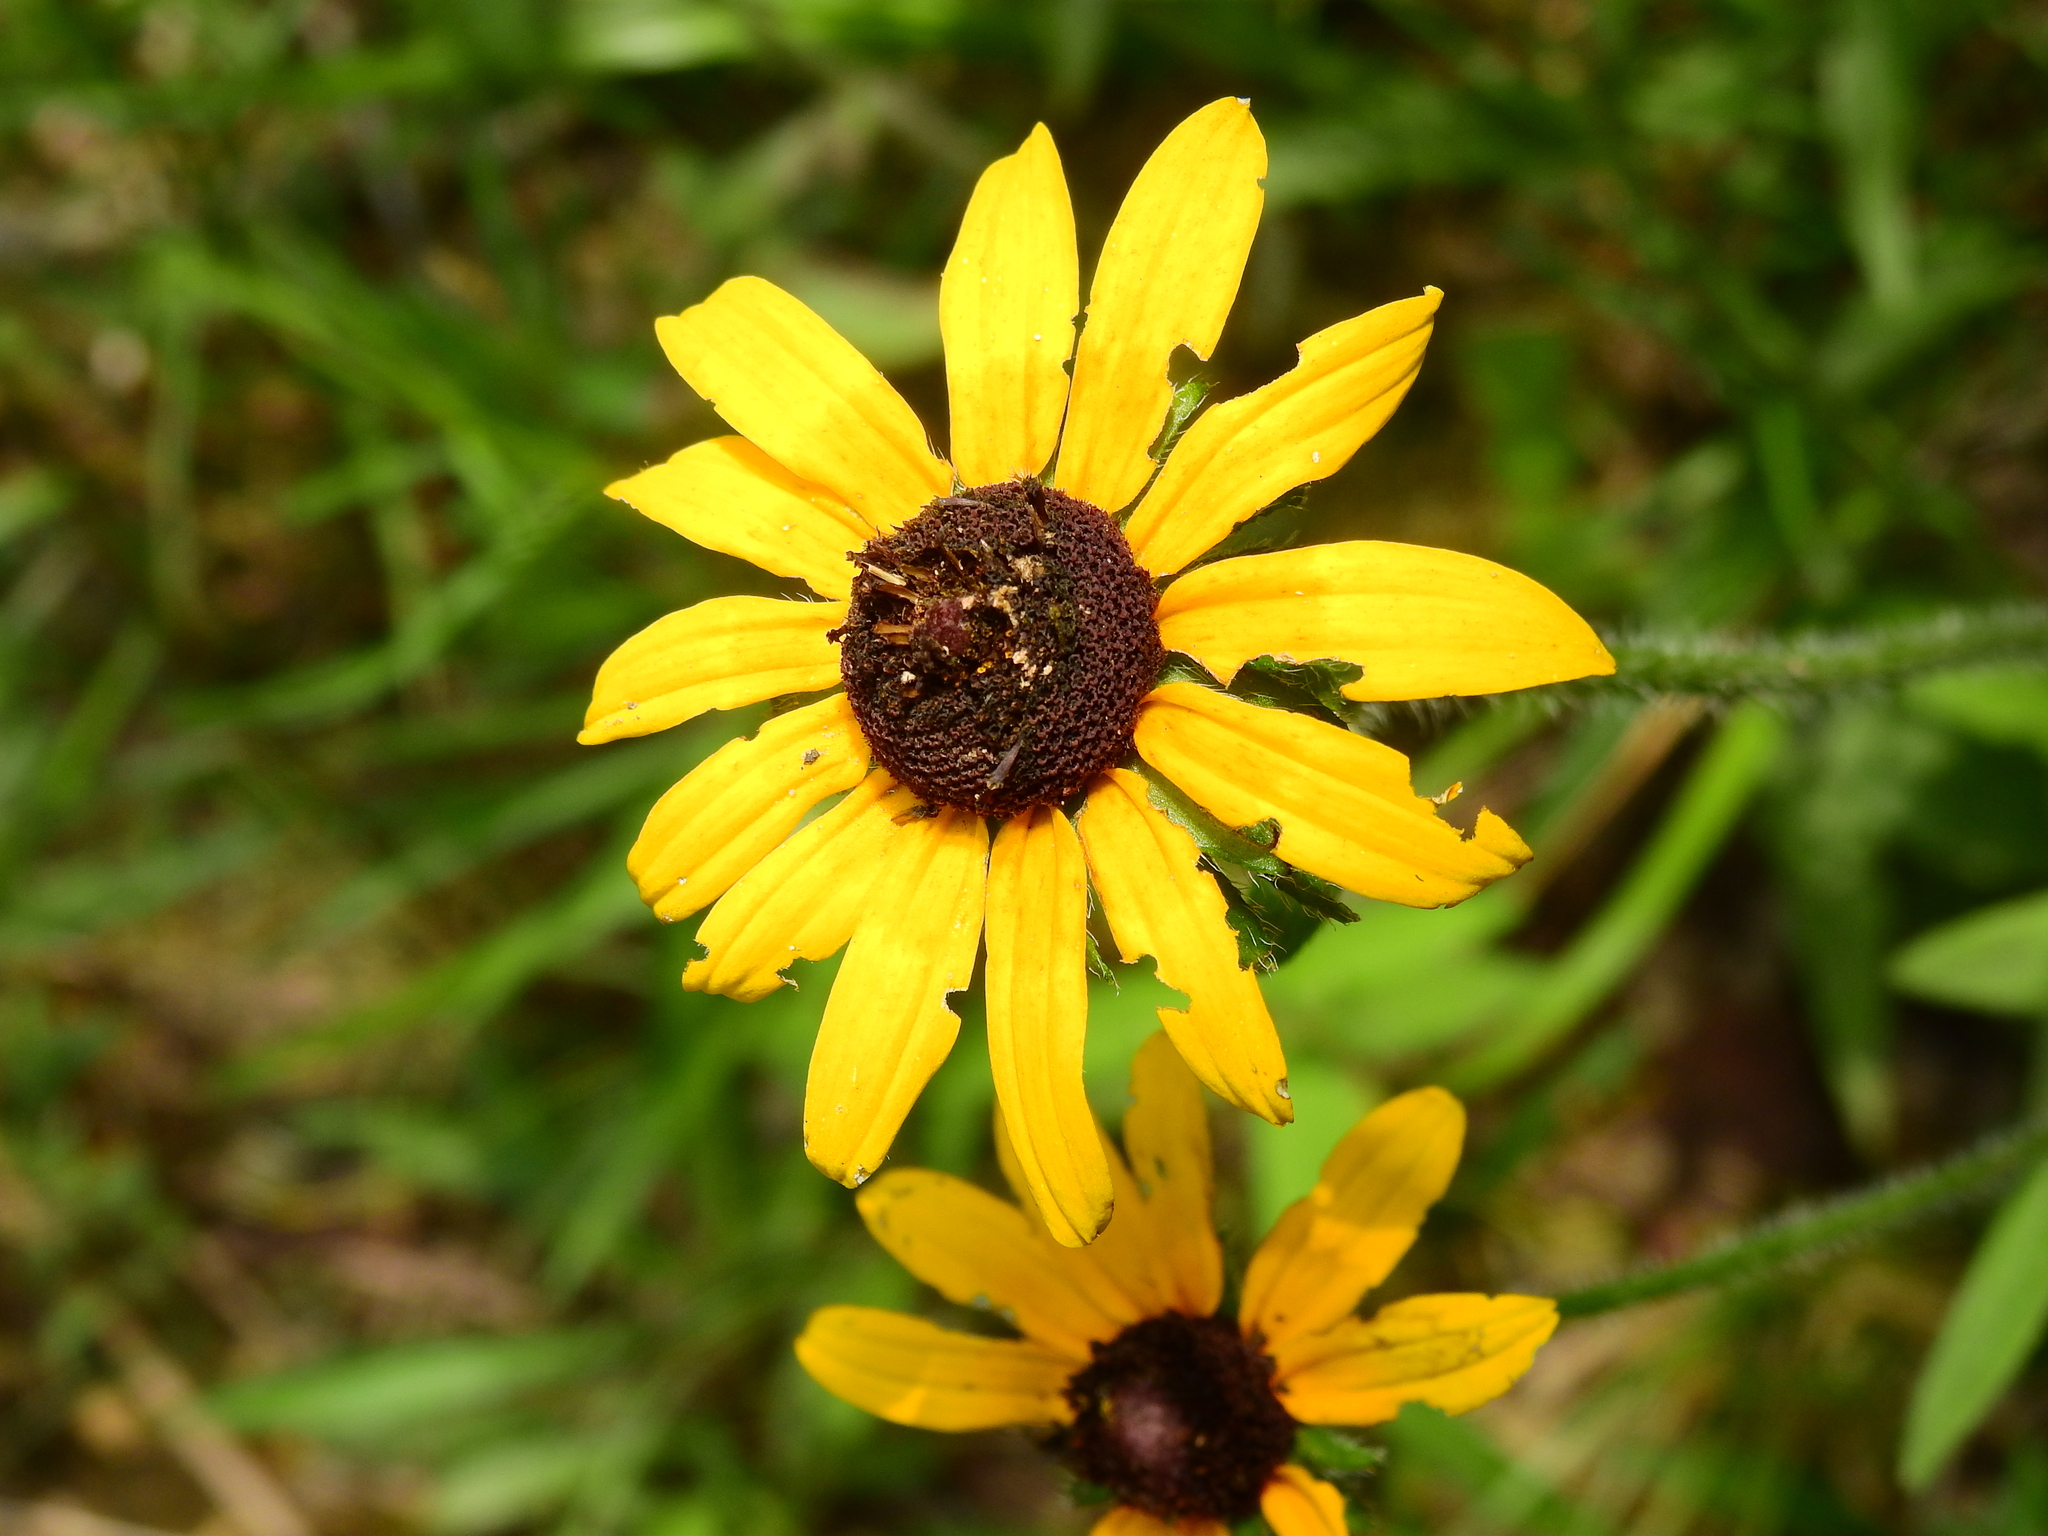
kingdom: Plantae
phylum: Tracheophyta
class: Magnoliopsida
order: Asterales
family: Asteraceae
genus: Rudbeckia
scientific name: Rudbeckia hirta
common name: Black-eyed-susan
